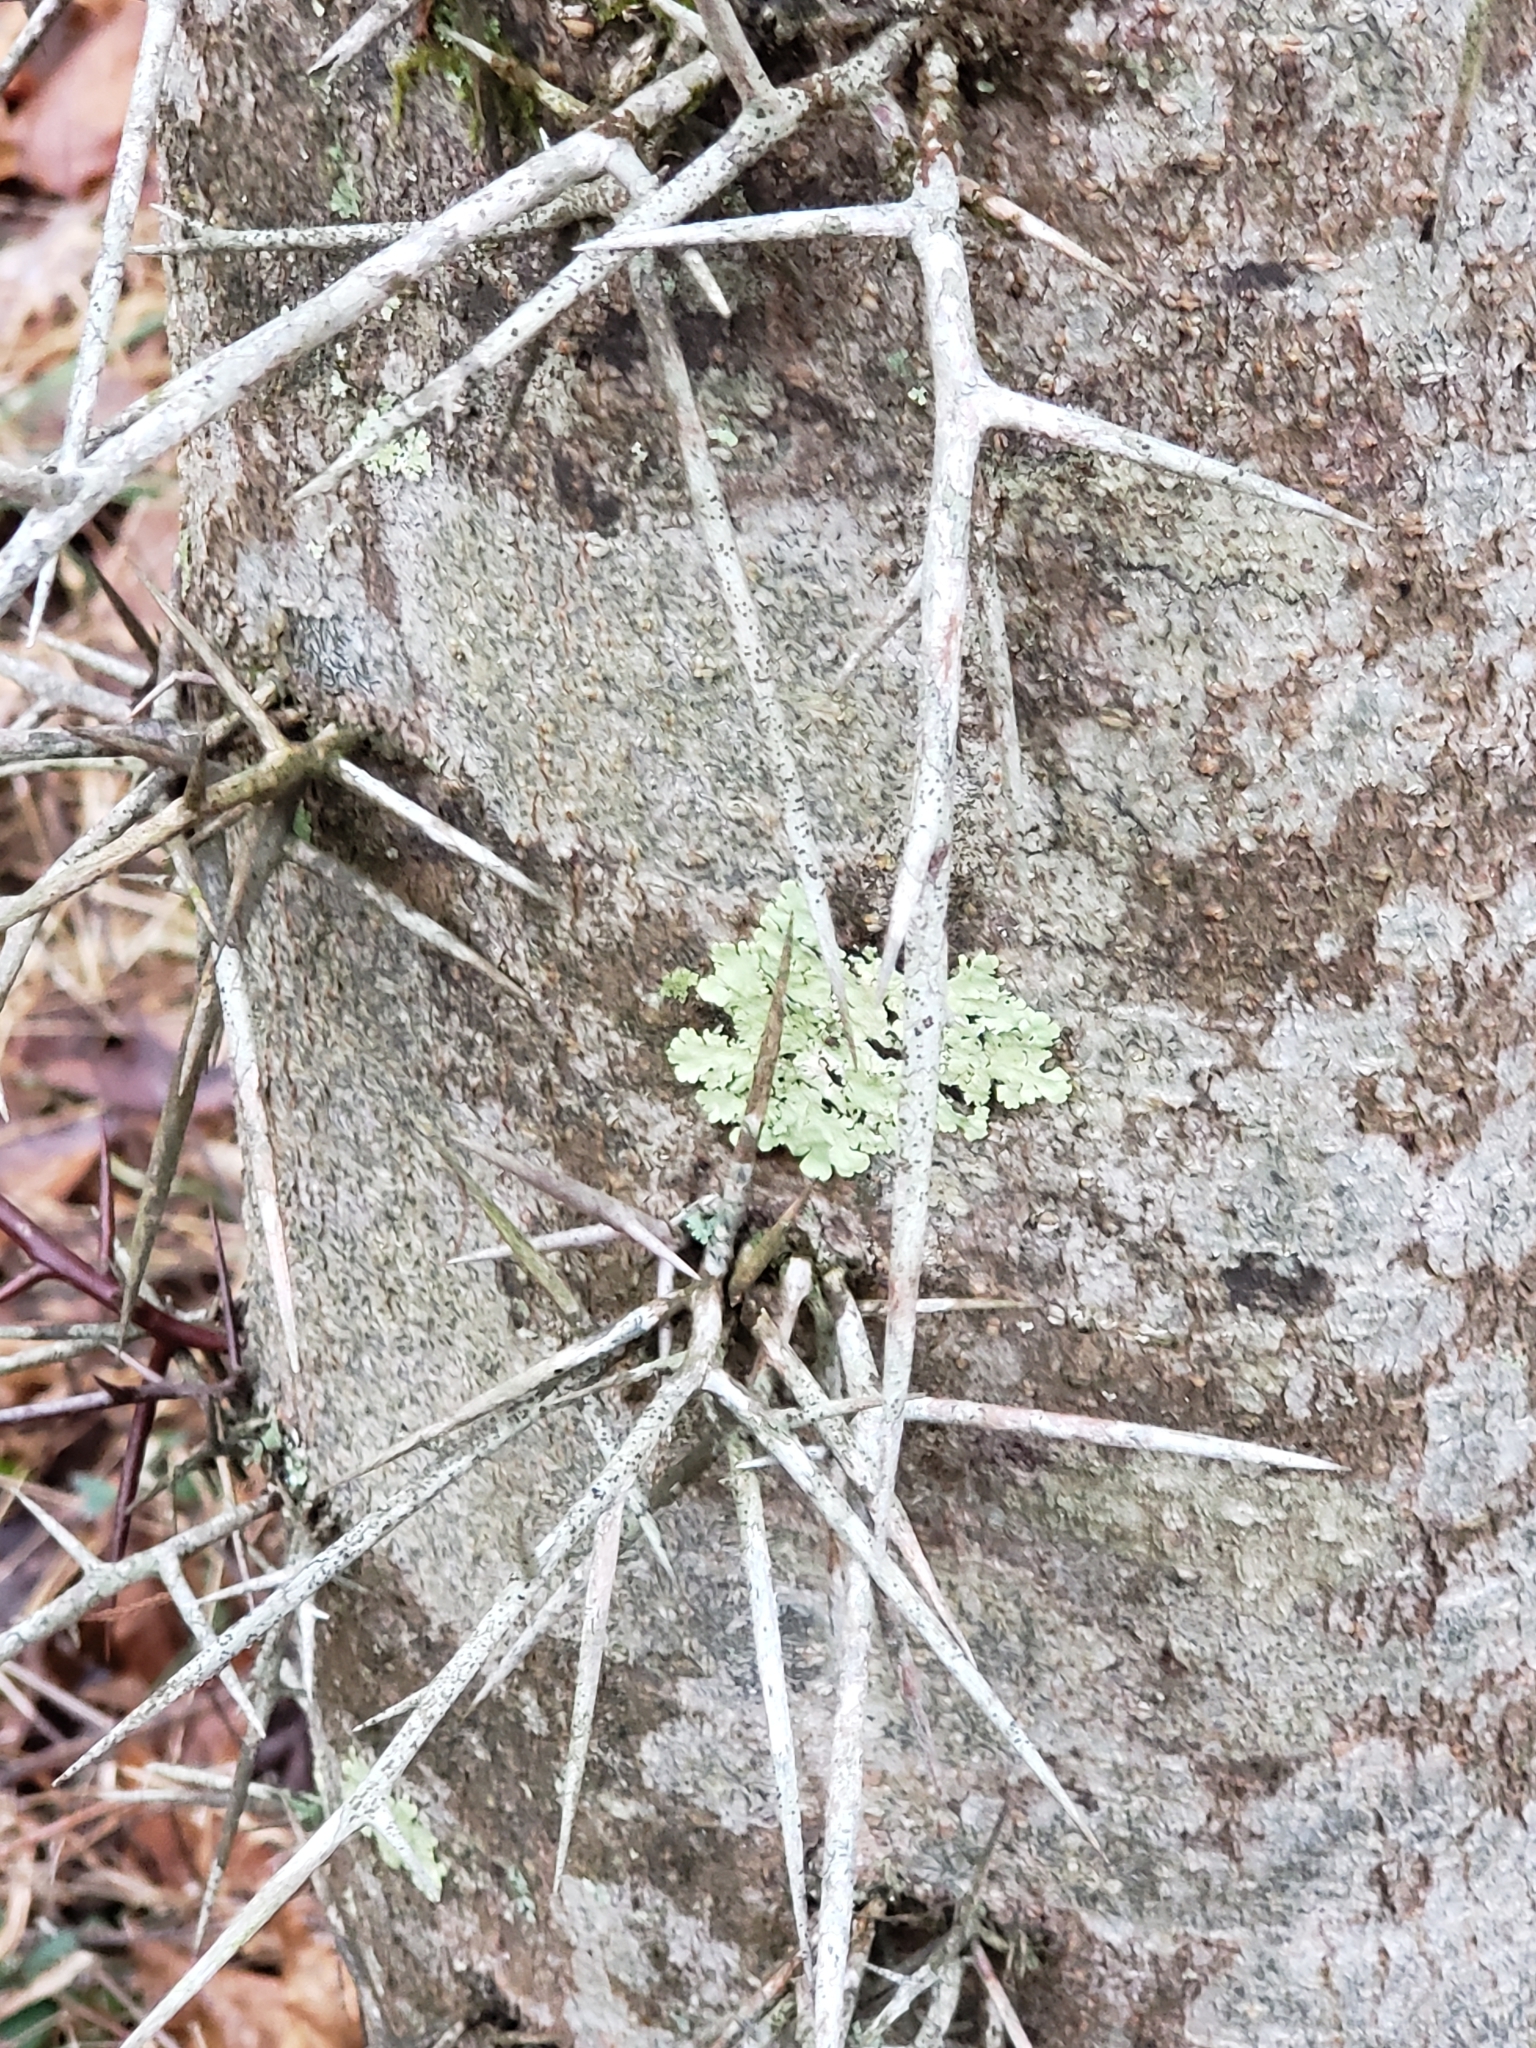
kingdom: Plantae
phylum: Tracheophyta
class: Magnoliopsida
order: Fabales
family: Fabaceae
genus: Gleditsia
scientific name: Gleditsia triacanthos
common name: Common honeylocust
